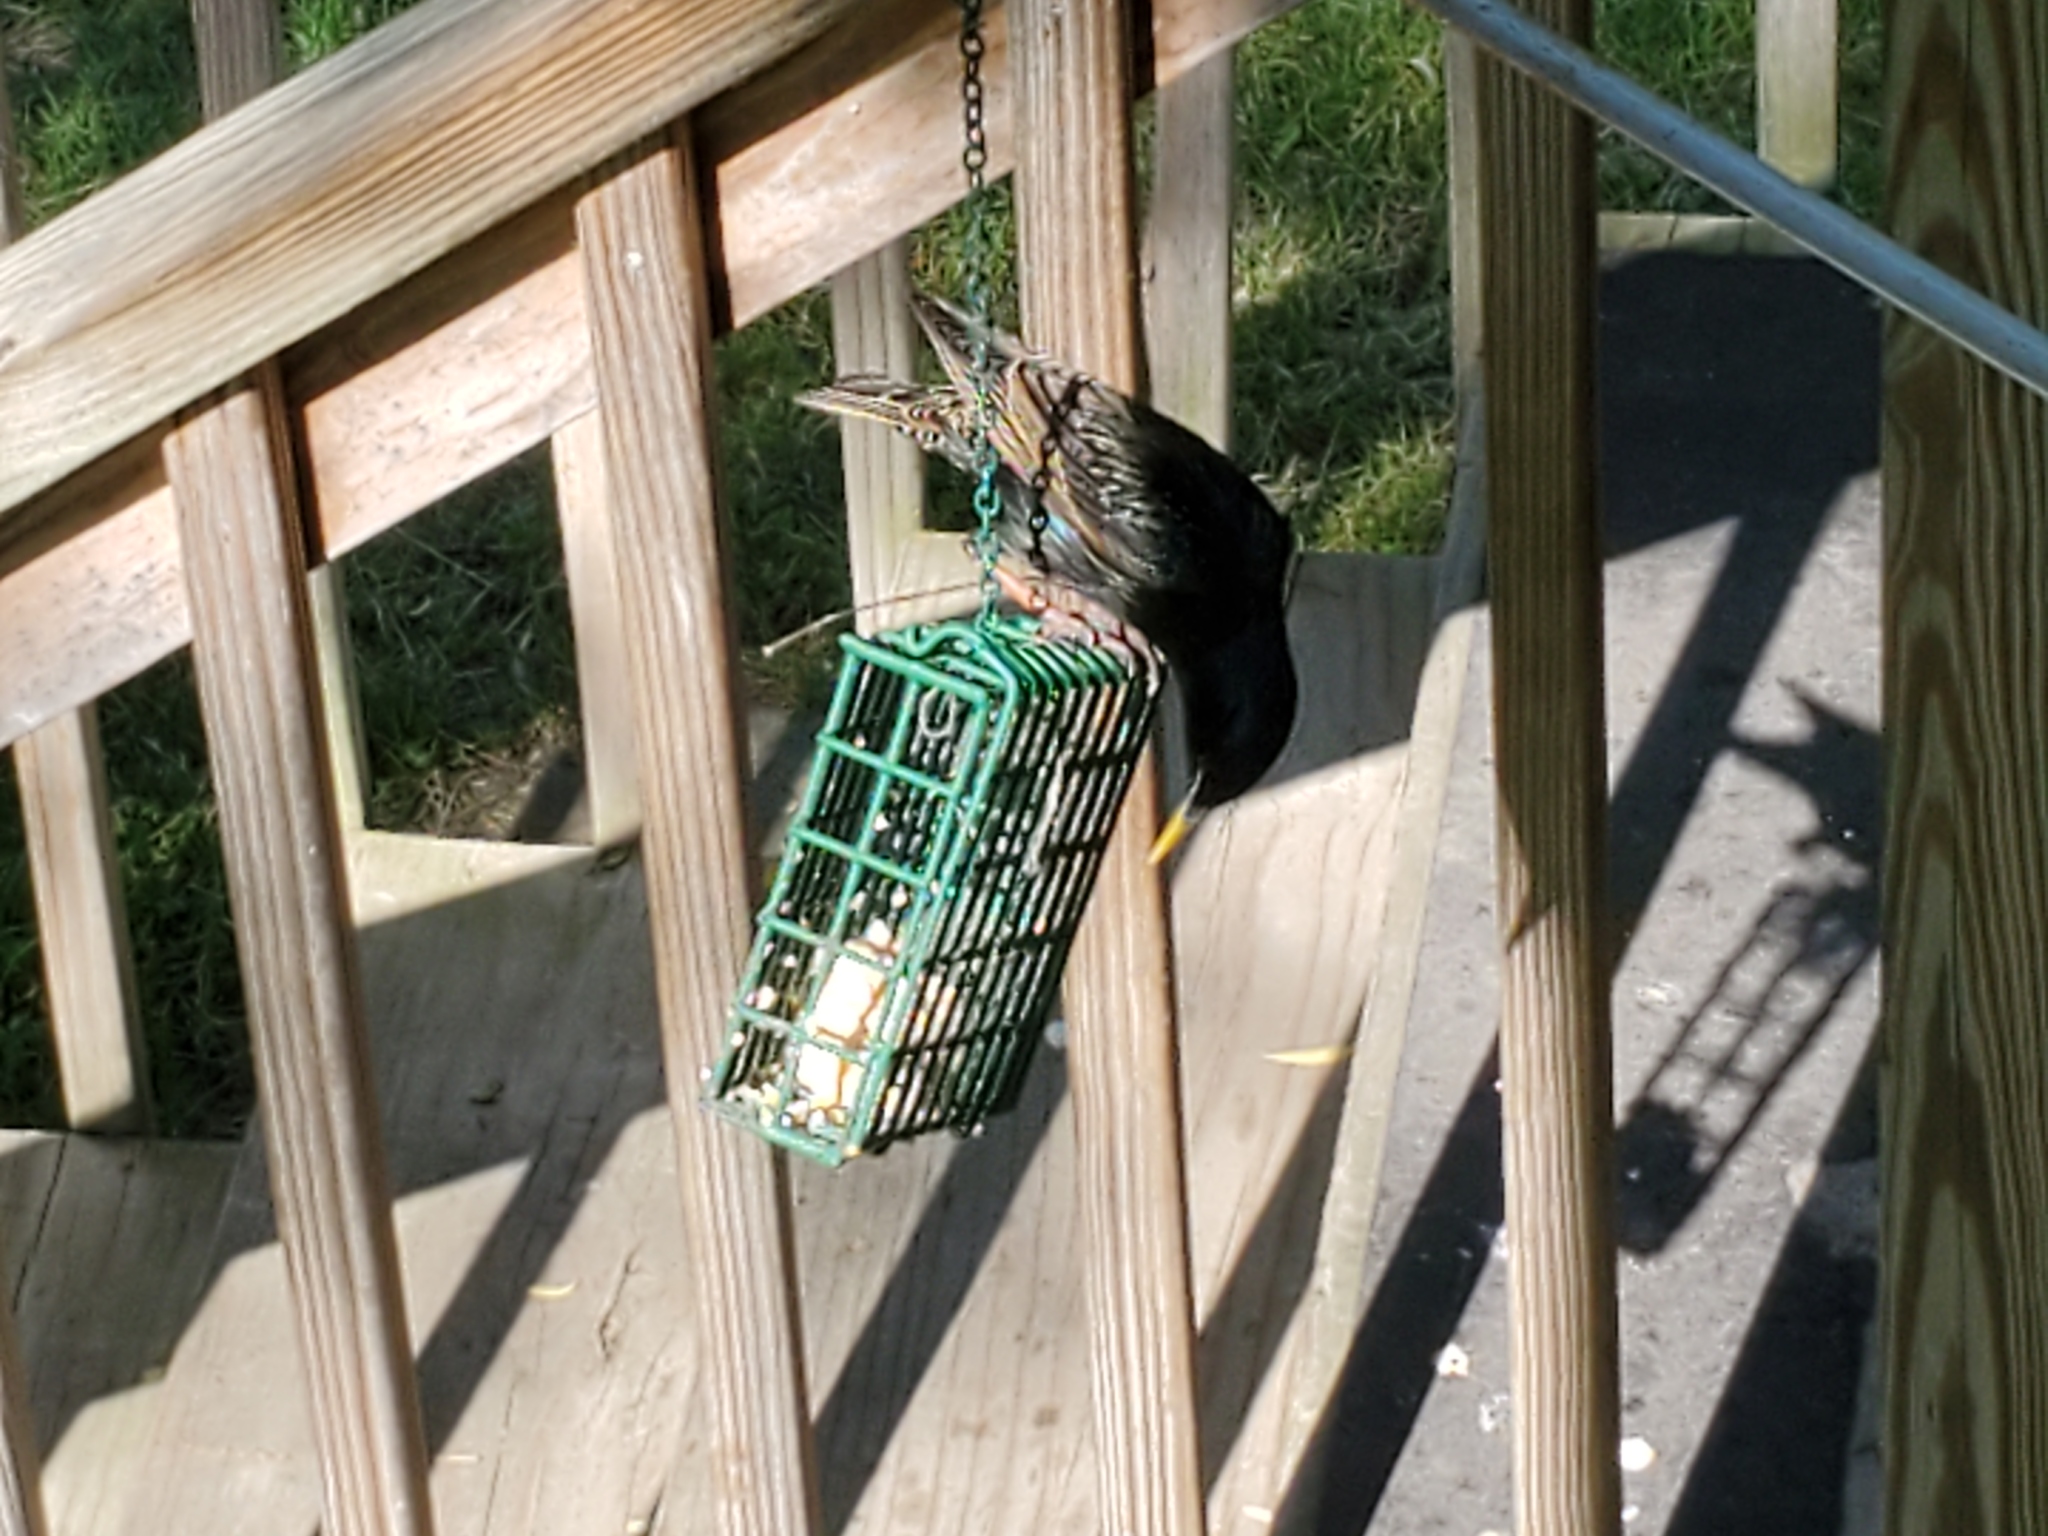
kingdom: Animalia
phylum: Chordata
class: Aves
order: Passeriformes
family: Sturnidae
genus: Sturnus
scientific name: Sturnus vulgaris
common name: Common starling
